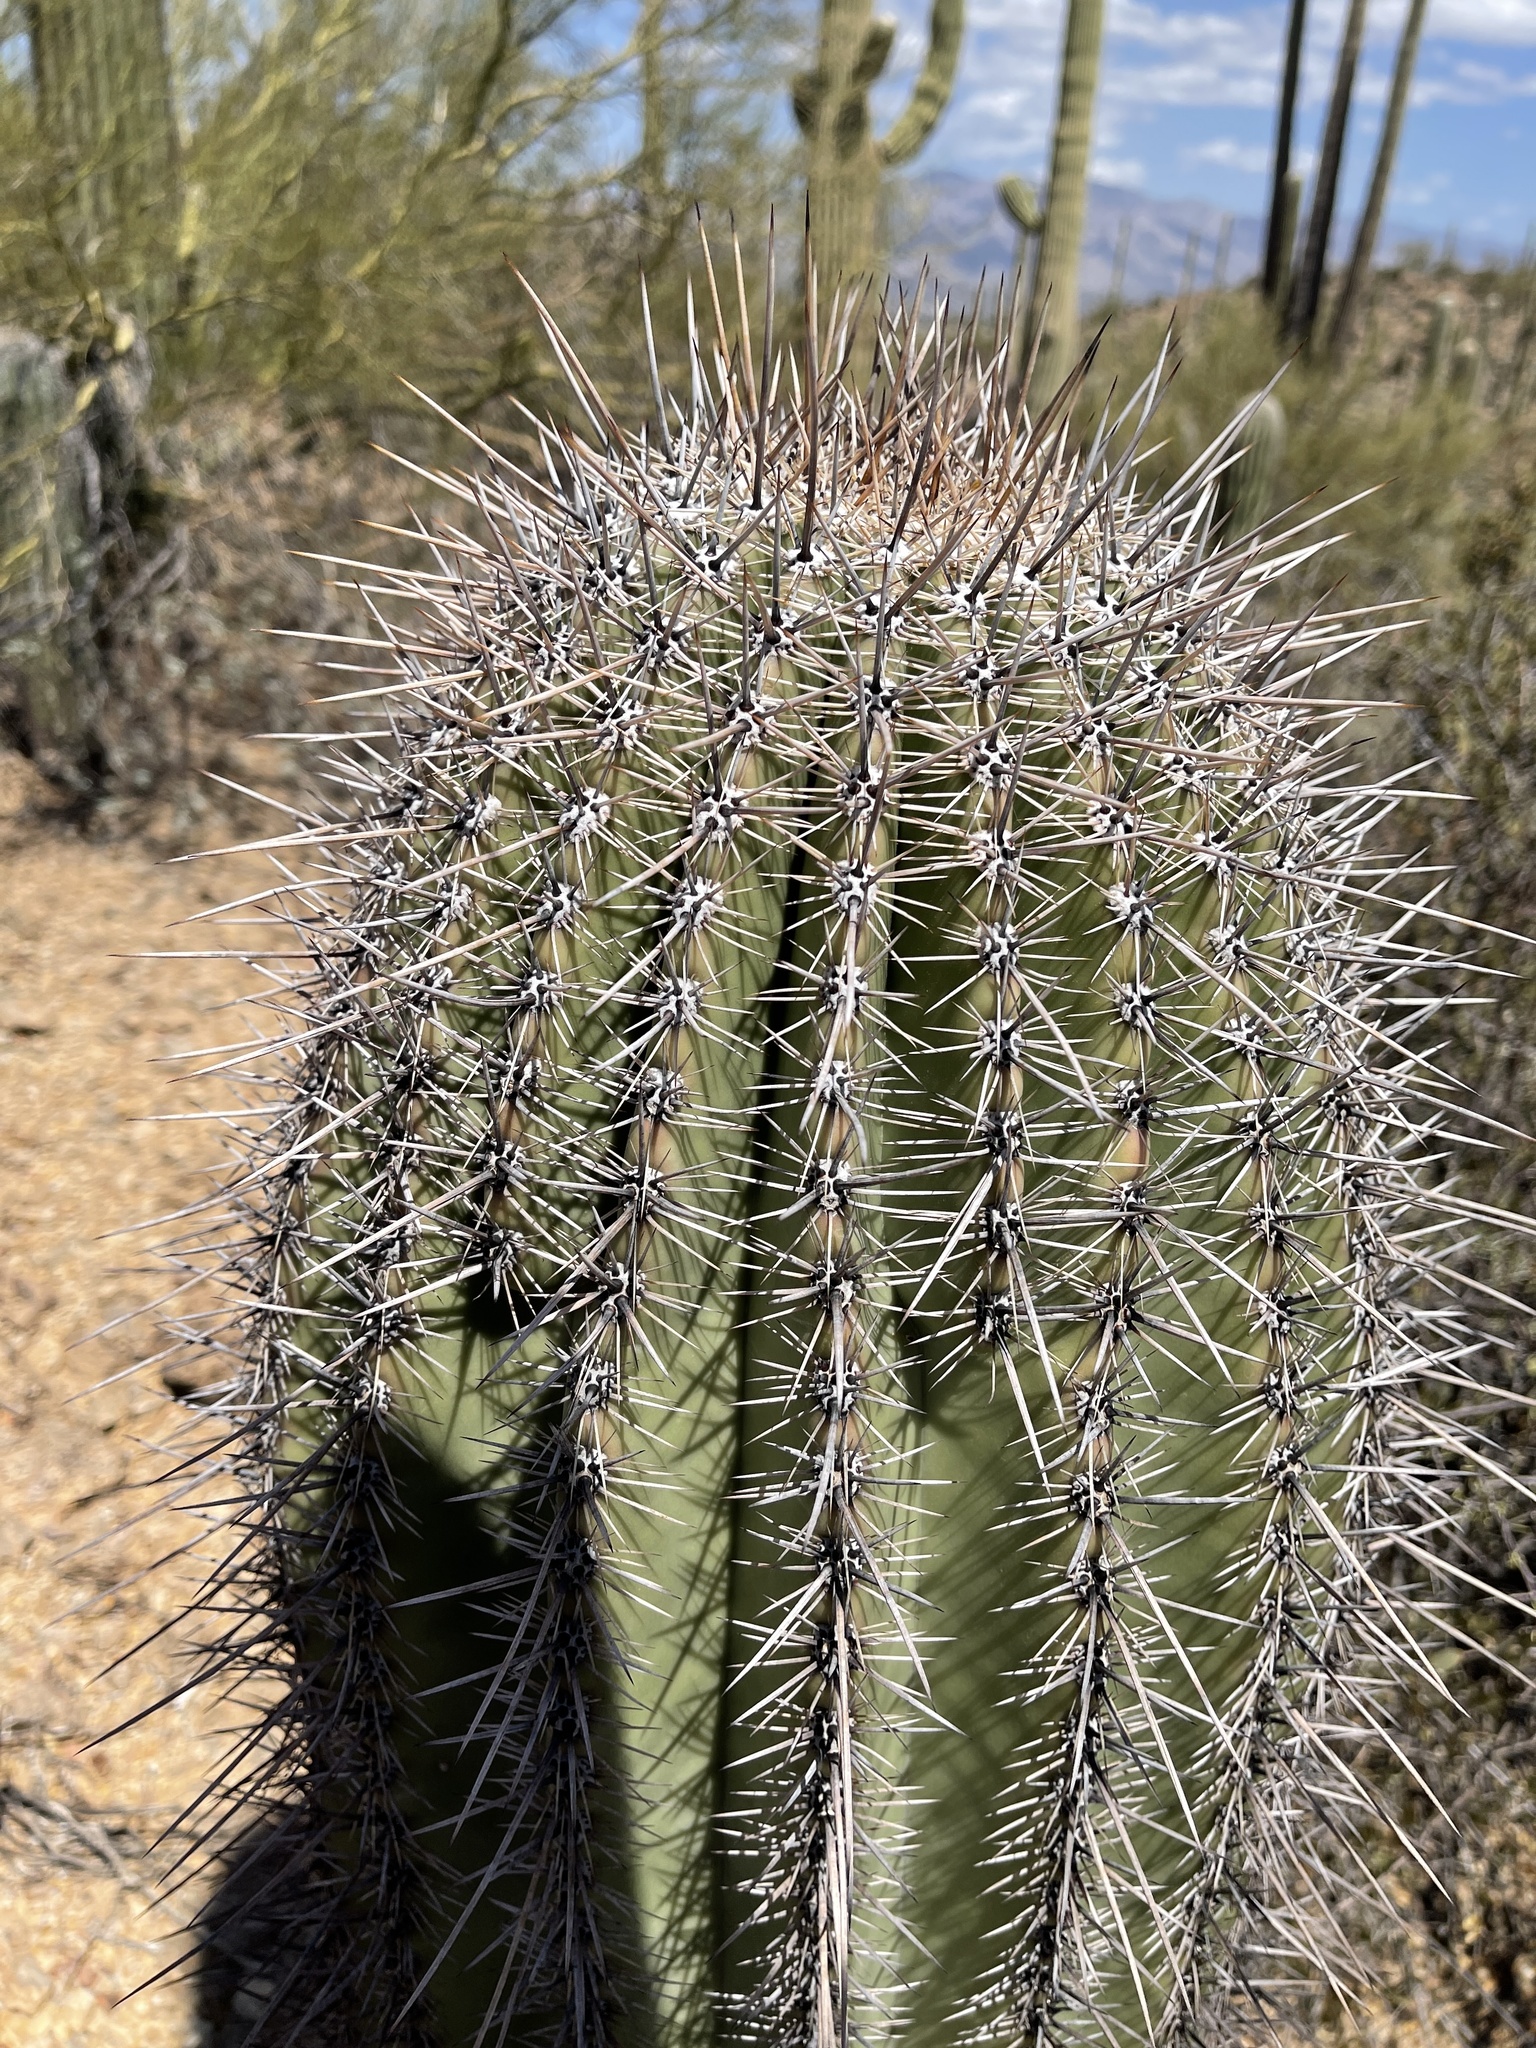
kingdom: Plantae
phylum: Tracheophyta
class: Magnoliopsida
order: Caryophyllales
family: Cactaceae
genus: Carnegiea
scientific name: Carnegiea gigantea
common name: Saguaro
